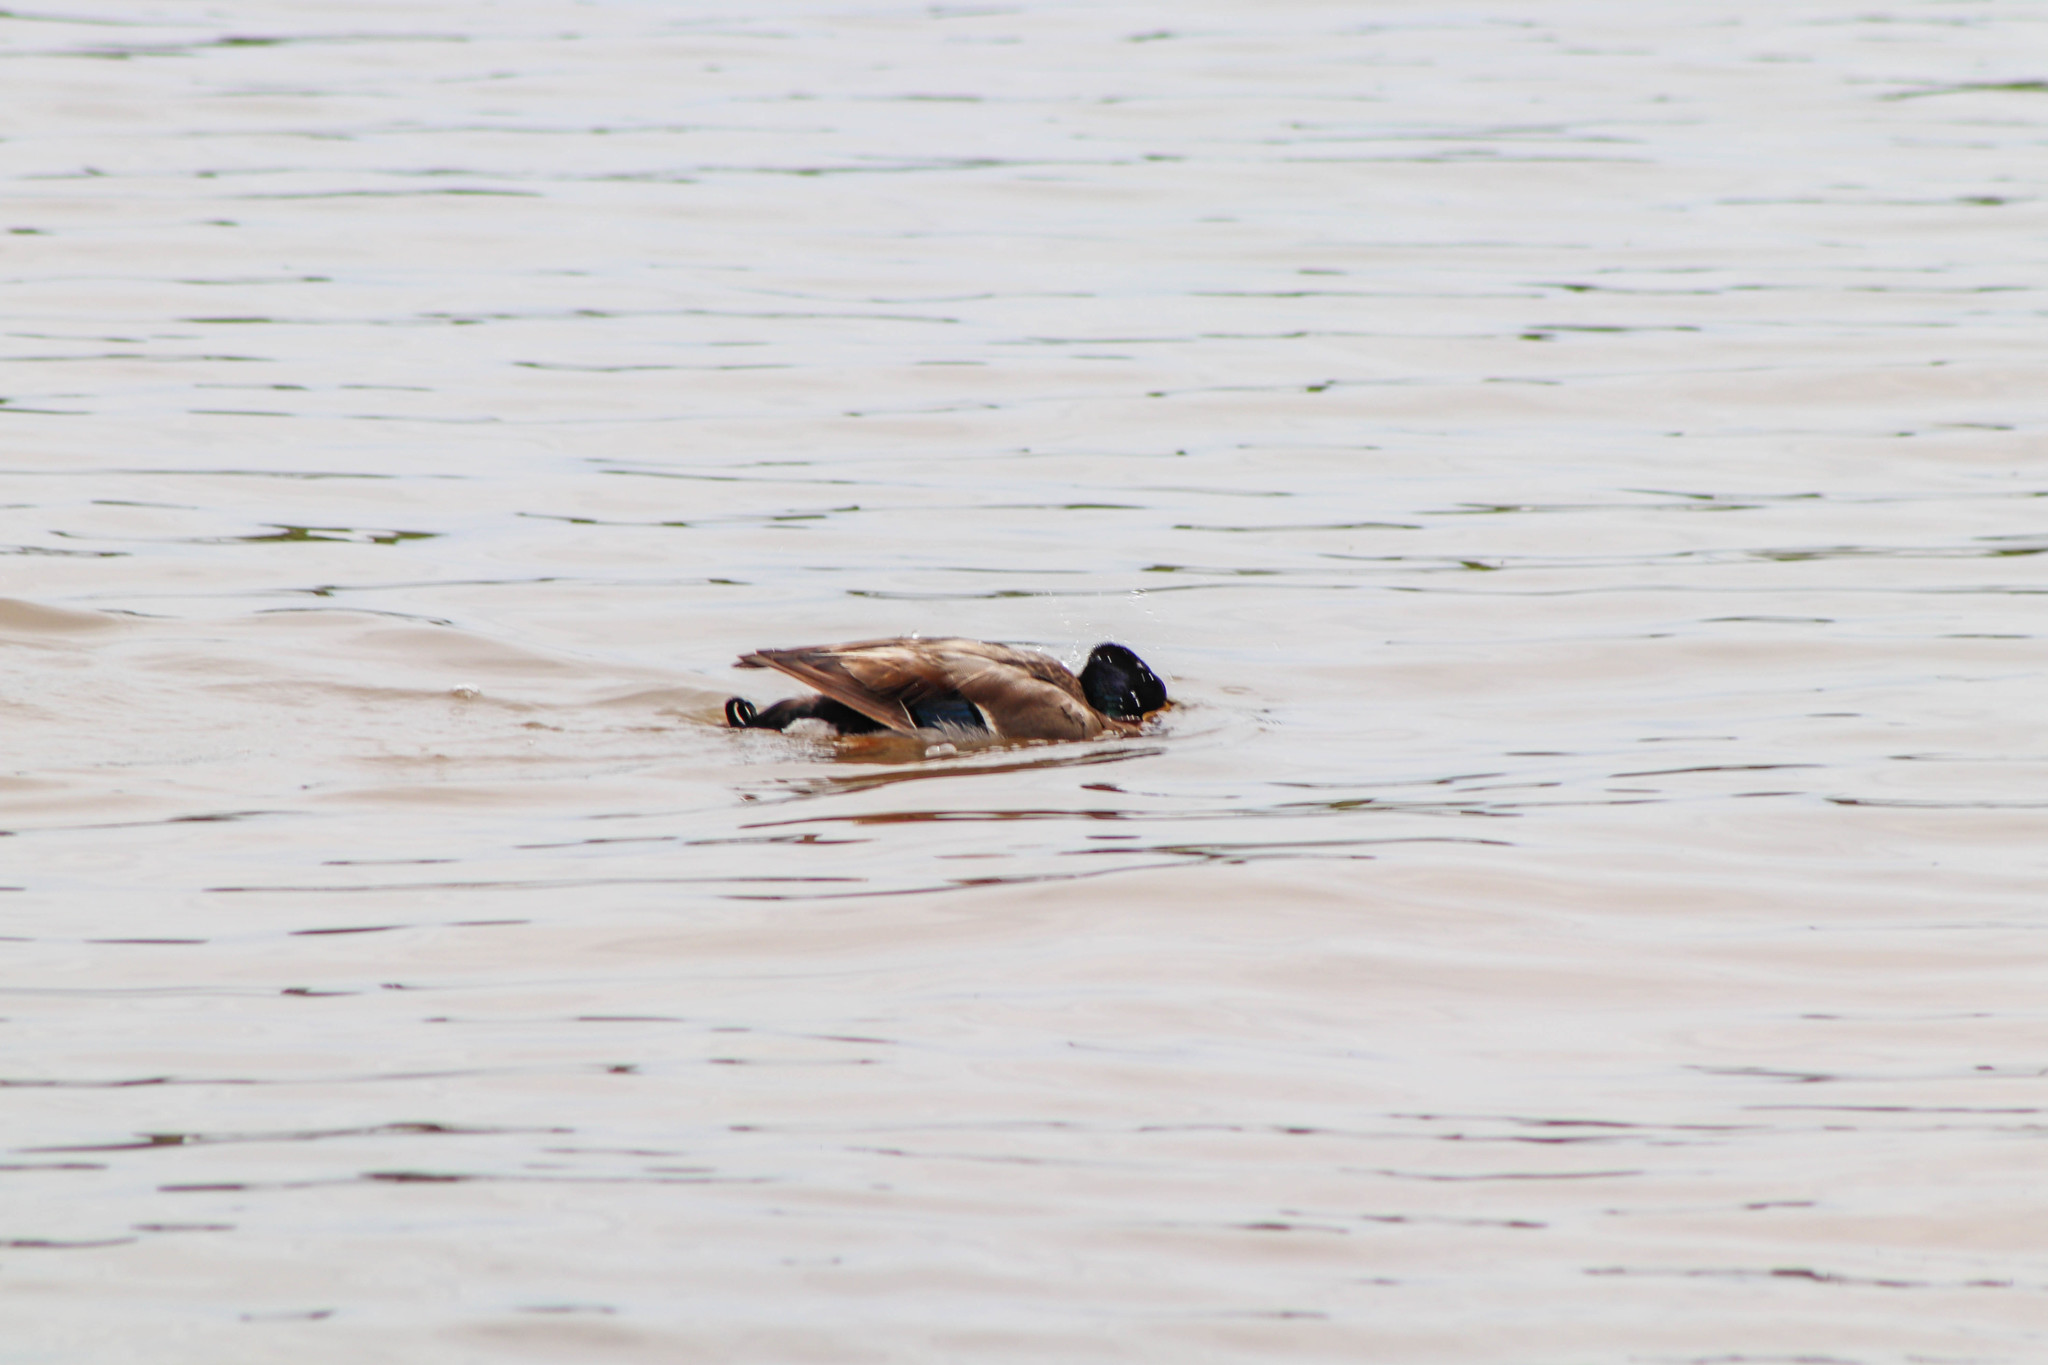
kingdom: Animalia
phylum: Chordata
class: Aves
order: Anseriformes
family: Anatidae
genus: Anas
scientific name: Anas platyrhynchos
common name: Mallard
